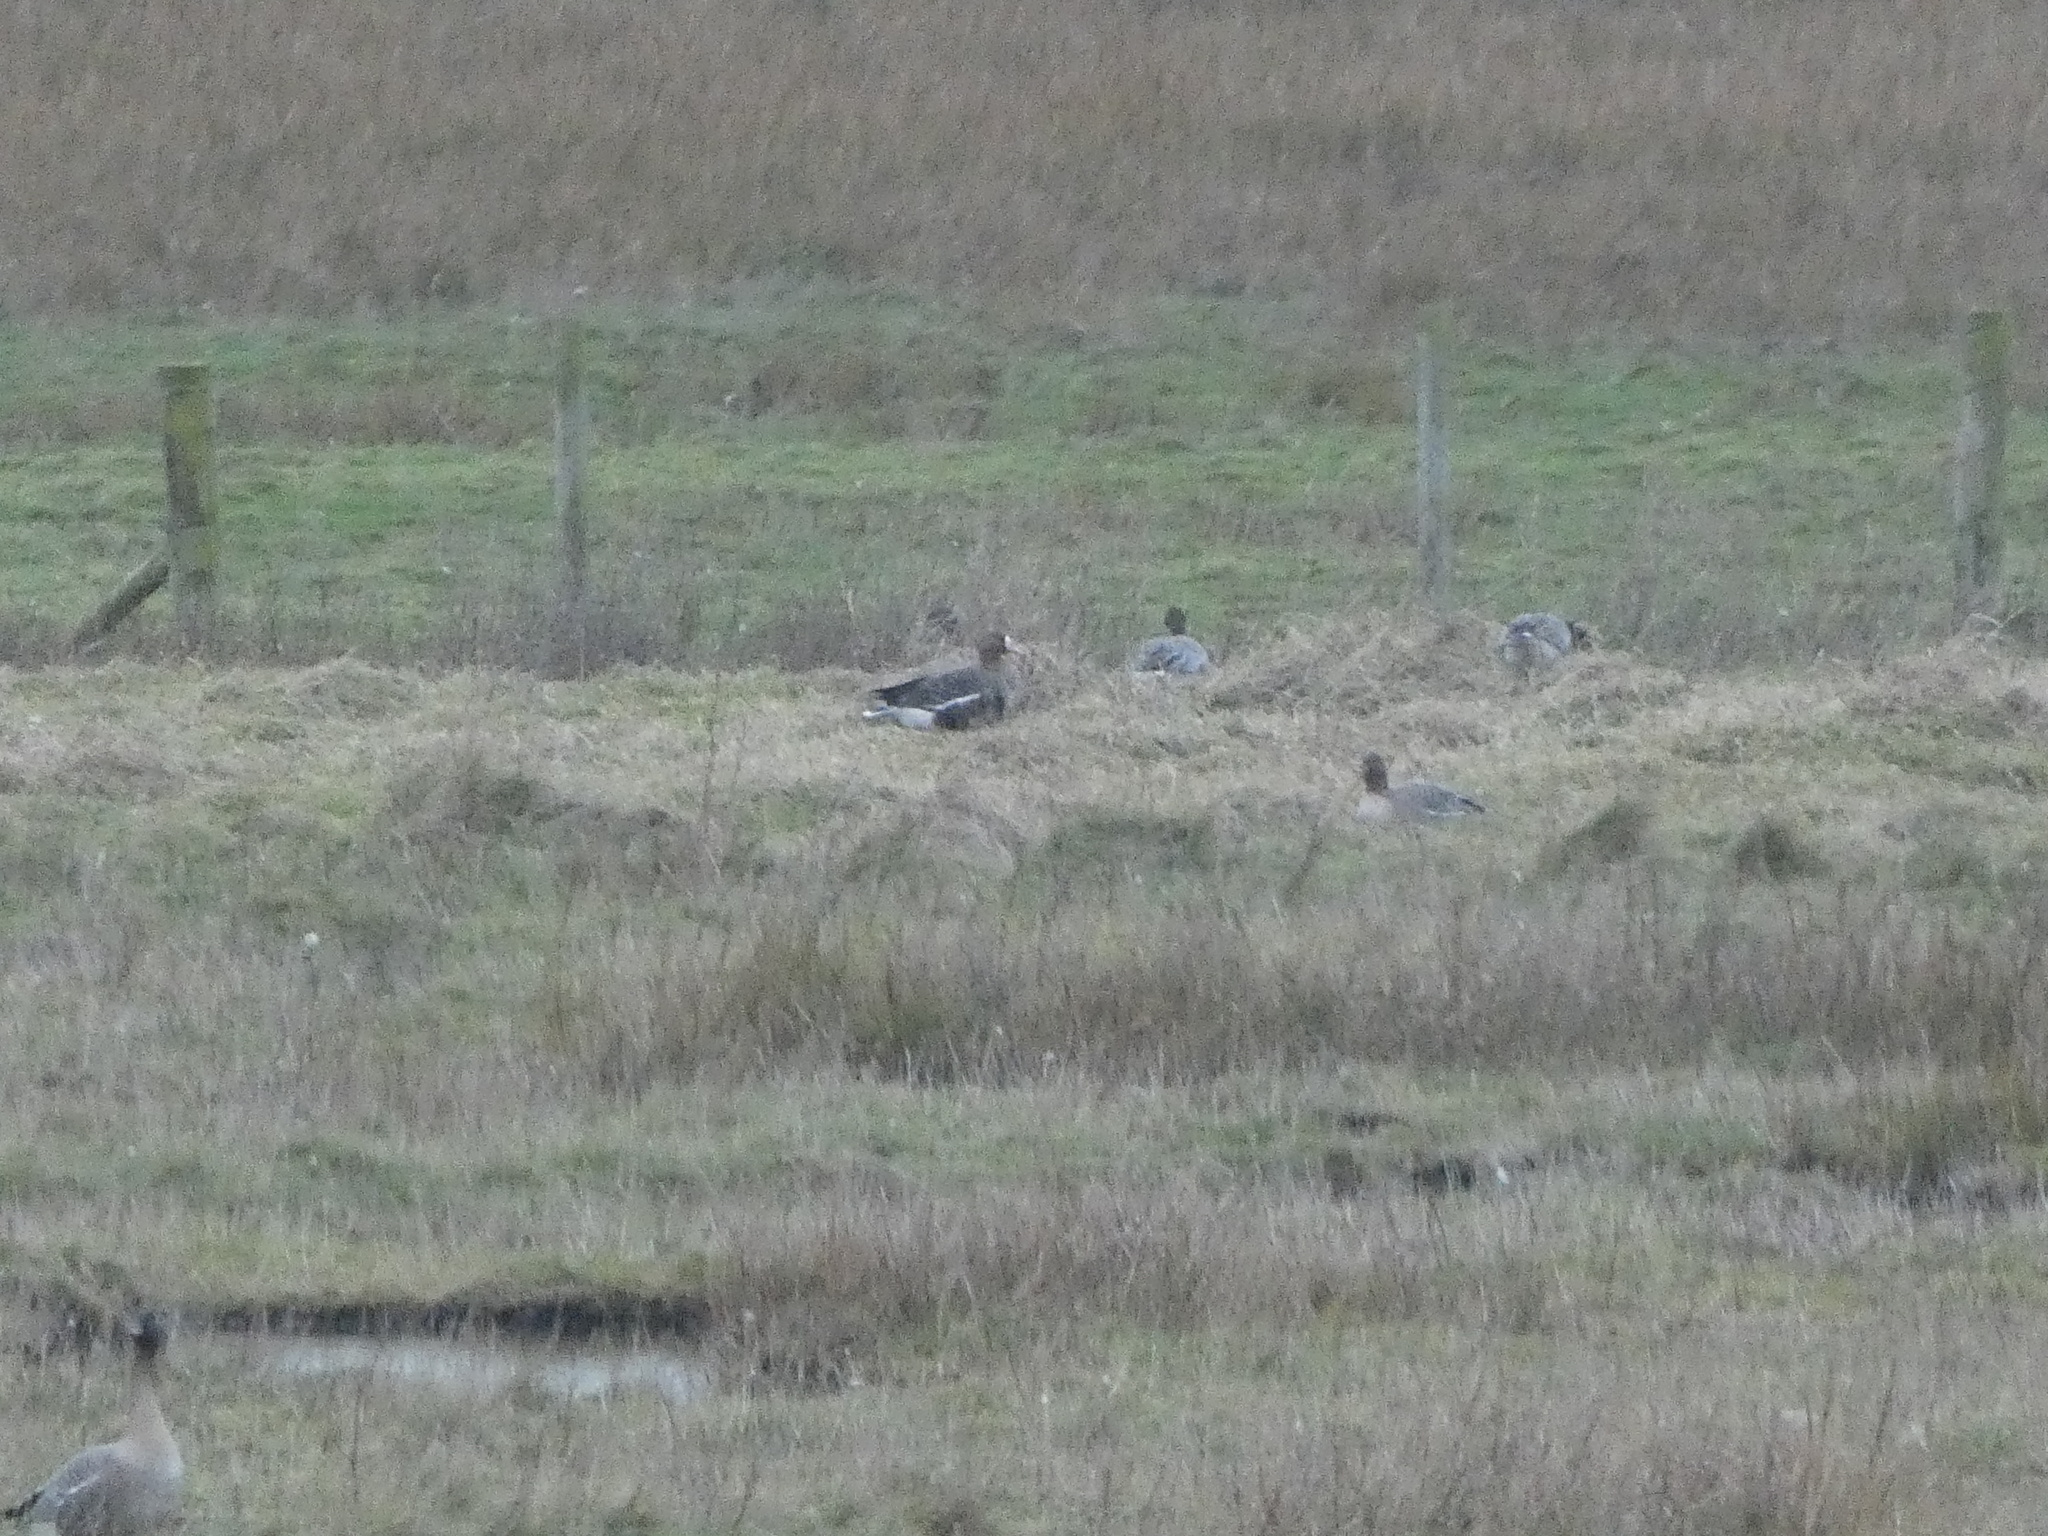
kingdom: Animalia
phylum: Chordata
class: Aves
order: Anseriformes
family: Anatidae
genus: Anser
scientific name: Anser albifrons
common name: Greater white-fronted goose
